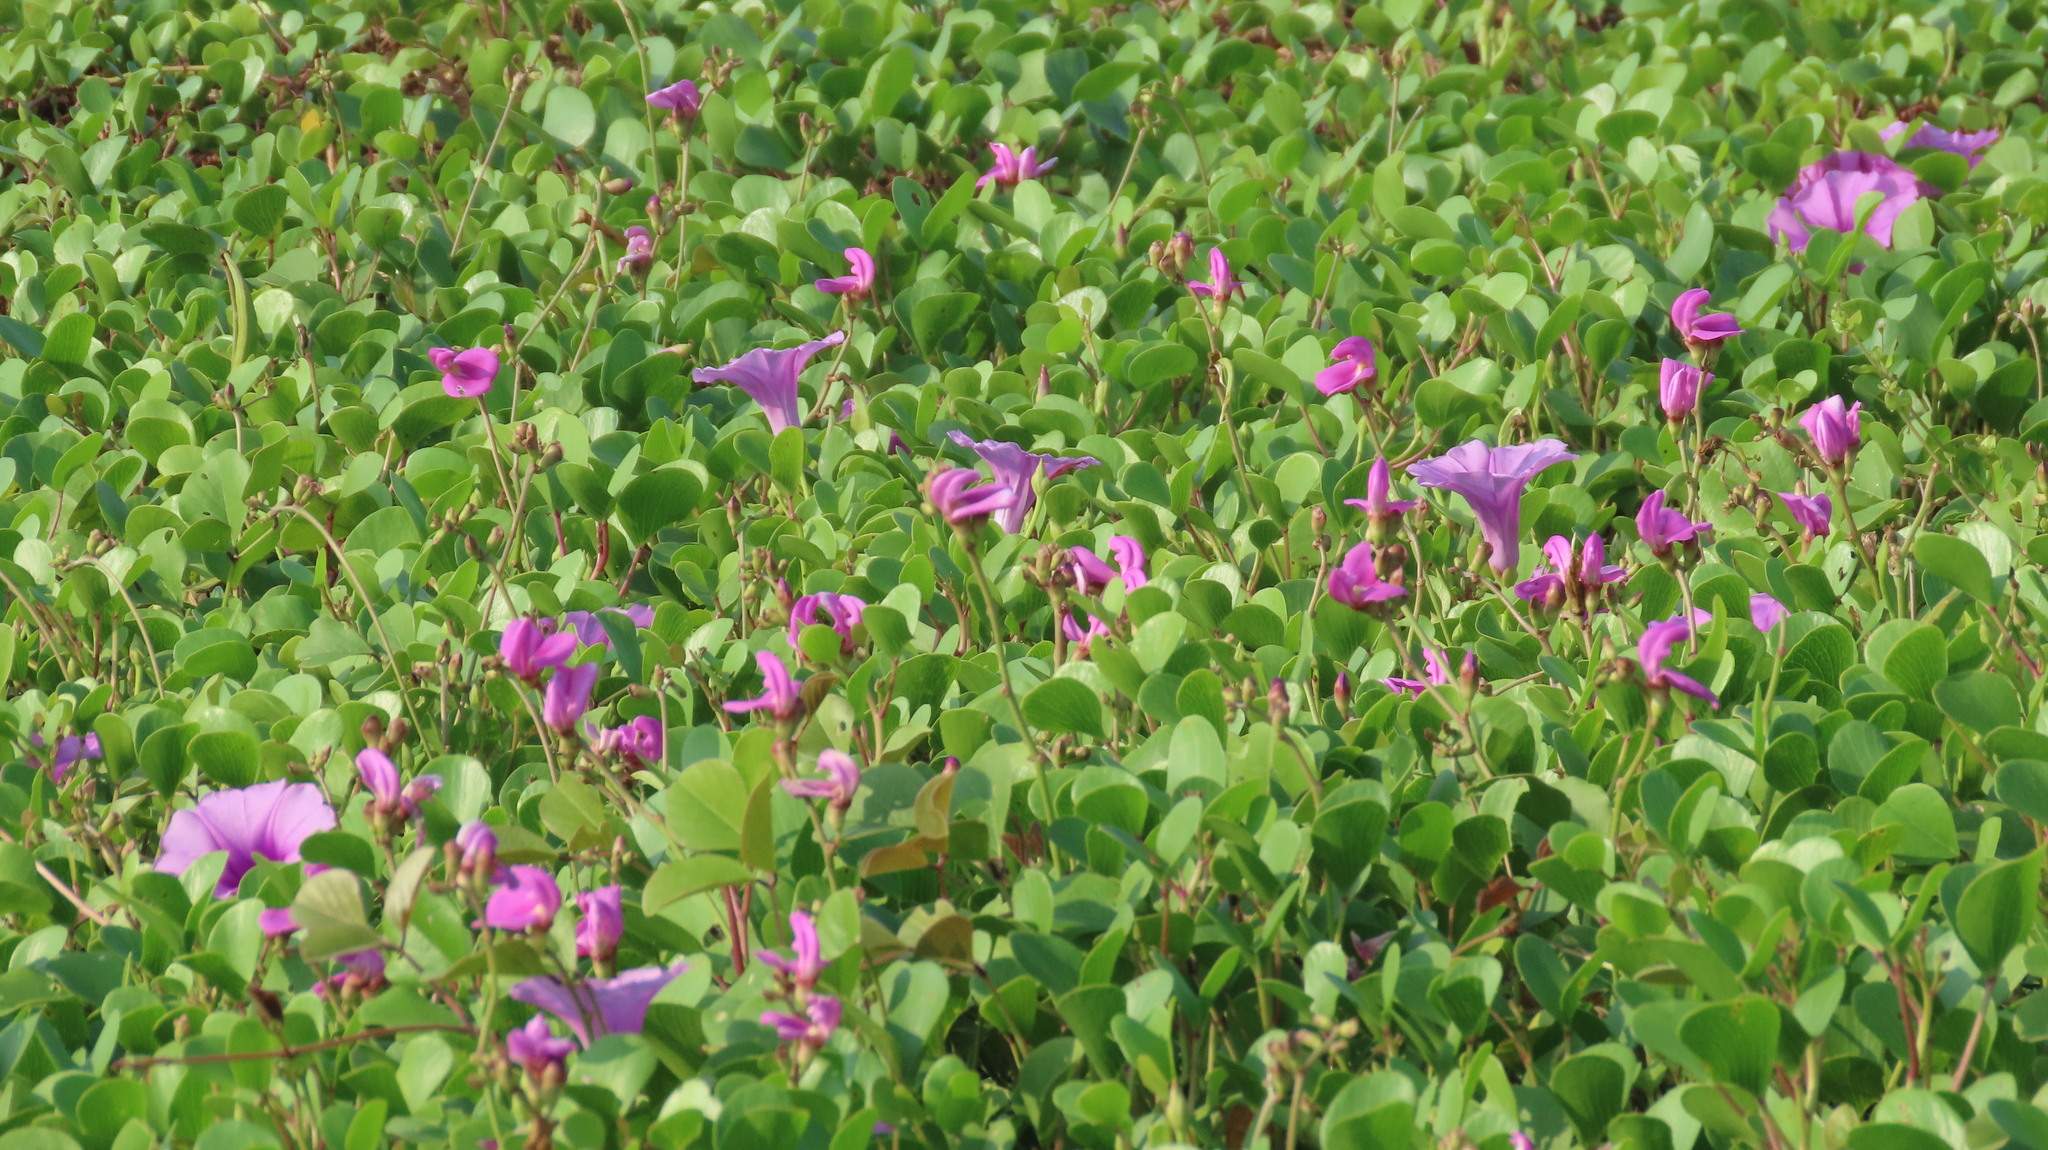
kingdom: Plantae
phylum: Tracheophyta
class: Magnoliopsida
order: Solanales
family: Convolvulaceae
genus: Ipomoea
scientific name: Ipomoea pes-caprae
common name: Beach morning glory
